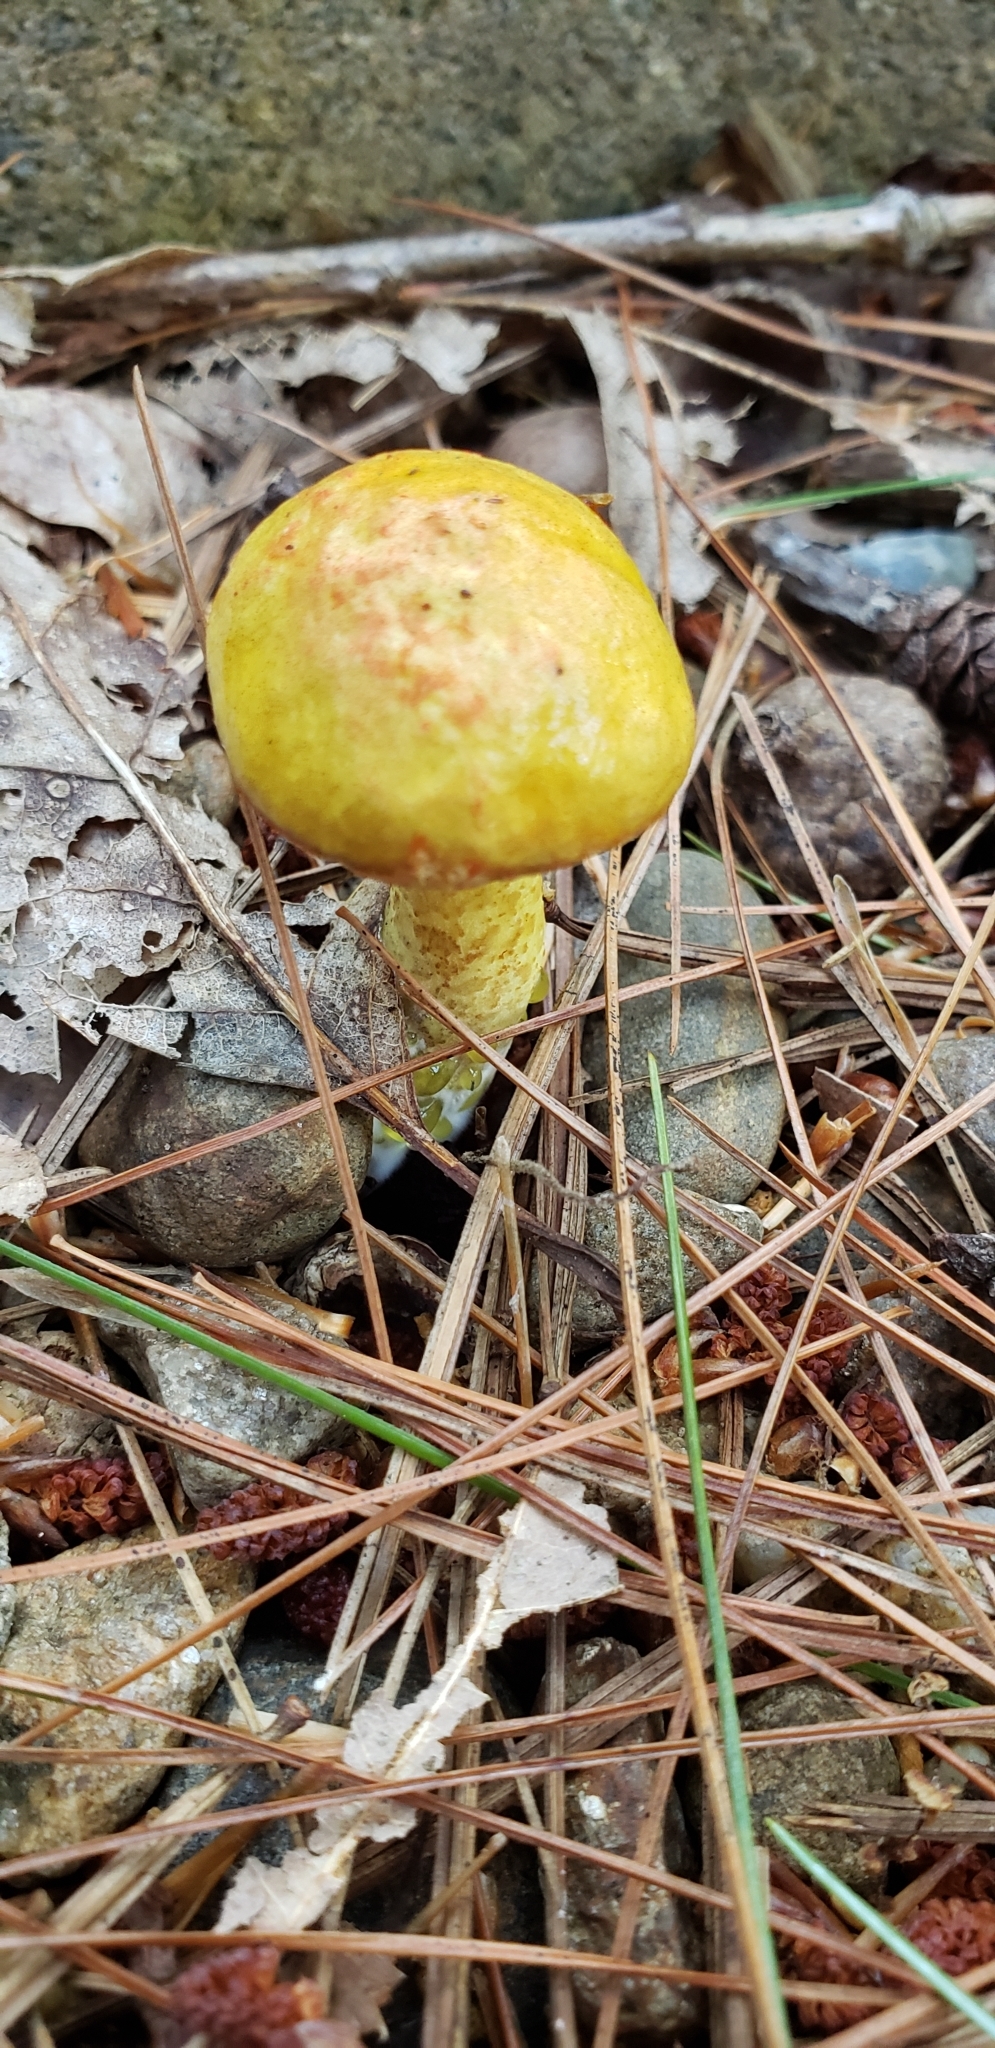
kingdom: Fungi
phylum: Basidiomycota
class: Agaricomycetes
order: Boletales
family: Suillaceae
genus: Suillus
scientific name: Suillus americanus
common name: Chicken fat mushroom
